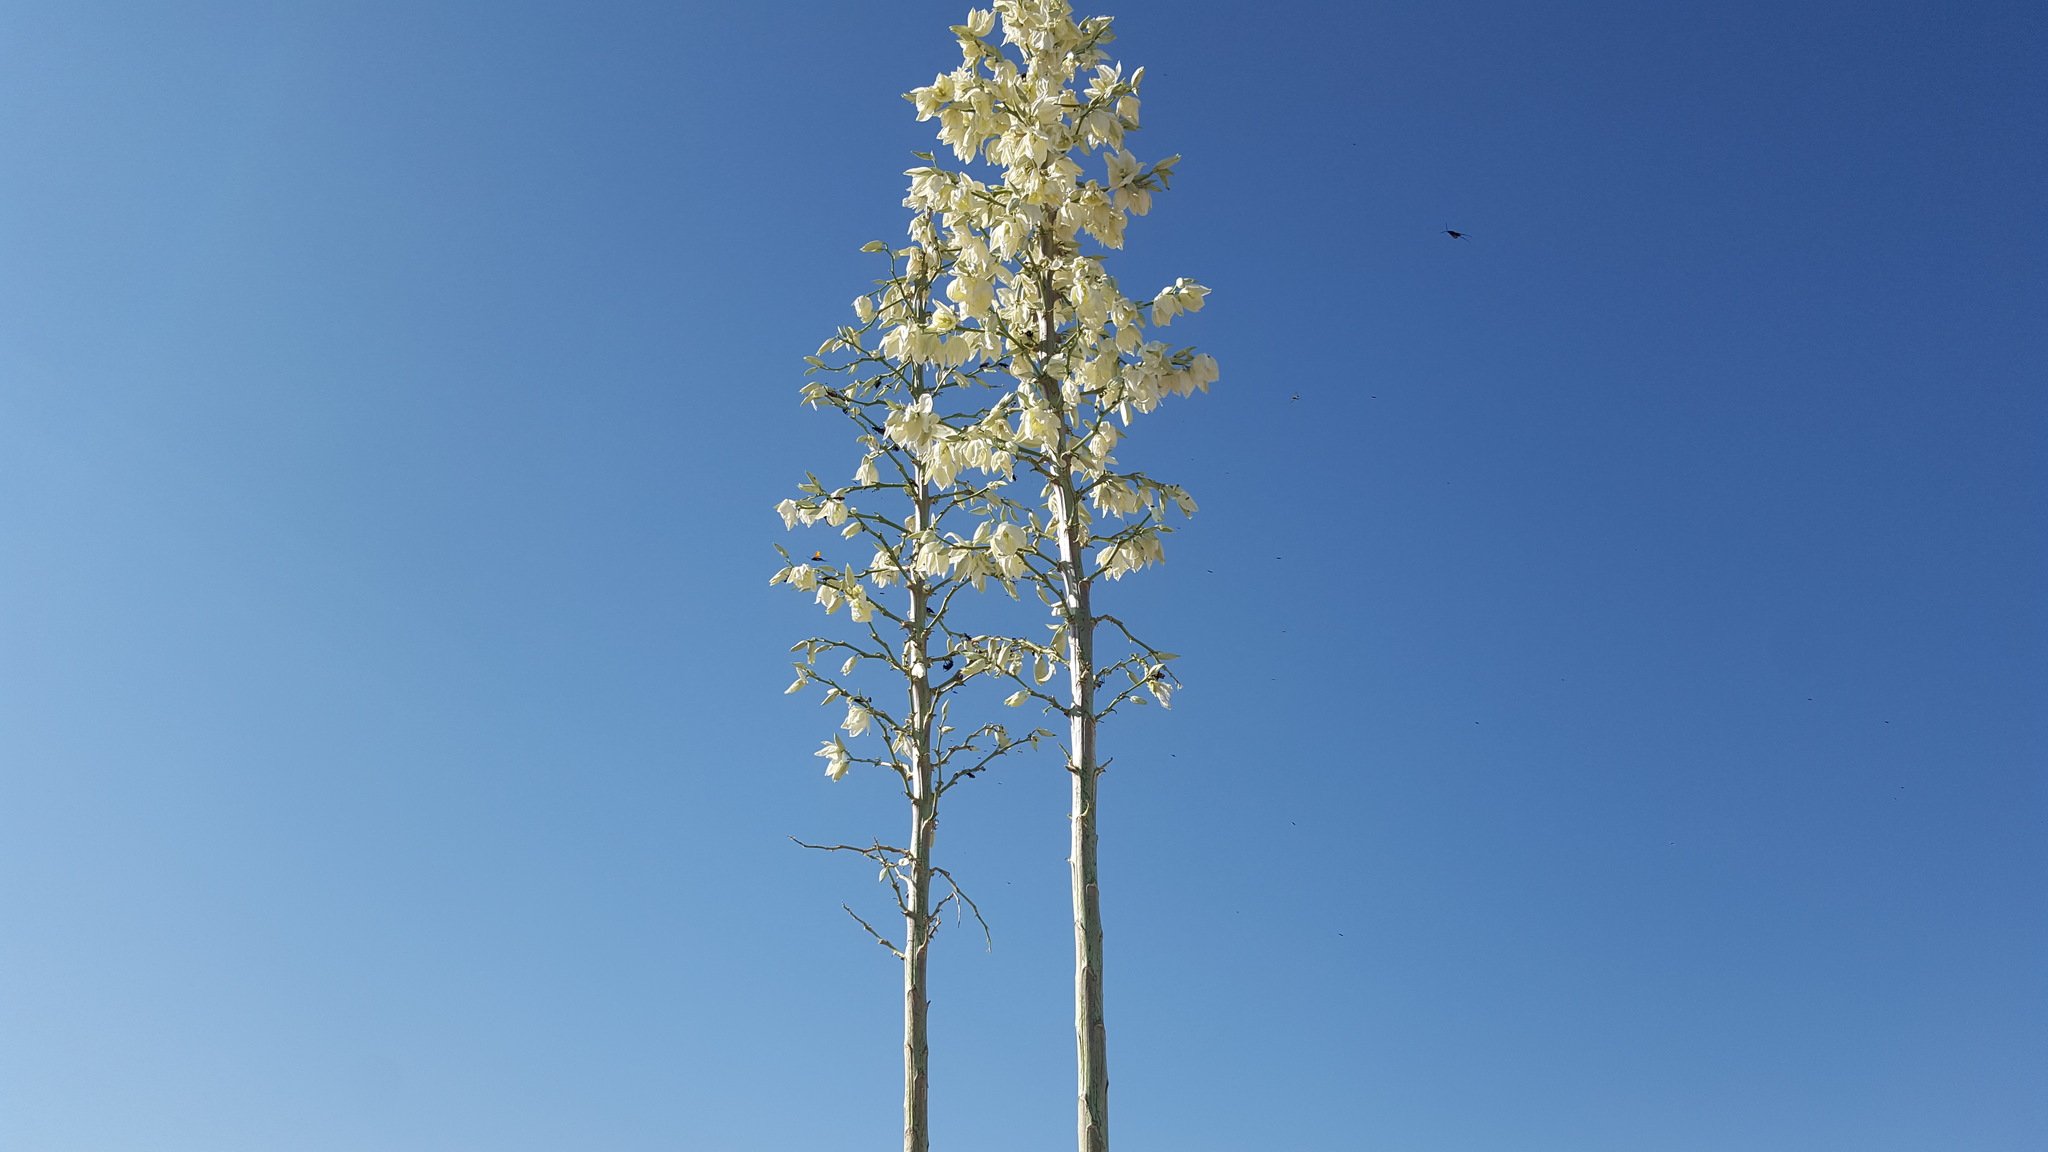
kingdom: Plantae
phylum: Tracheophyta
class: Liliopsida
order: Asparagales
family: Asparagaceae
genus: Yucca
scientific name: Yucca elata
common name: Palmella
